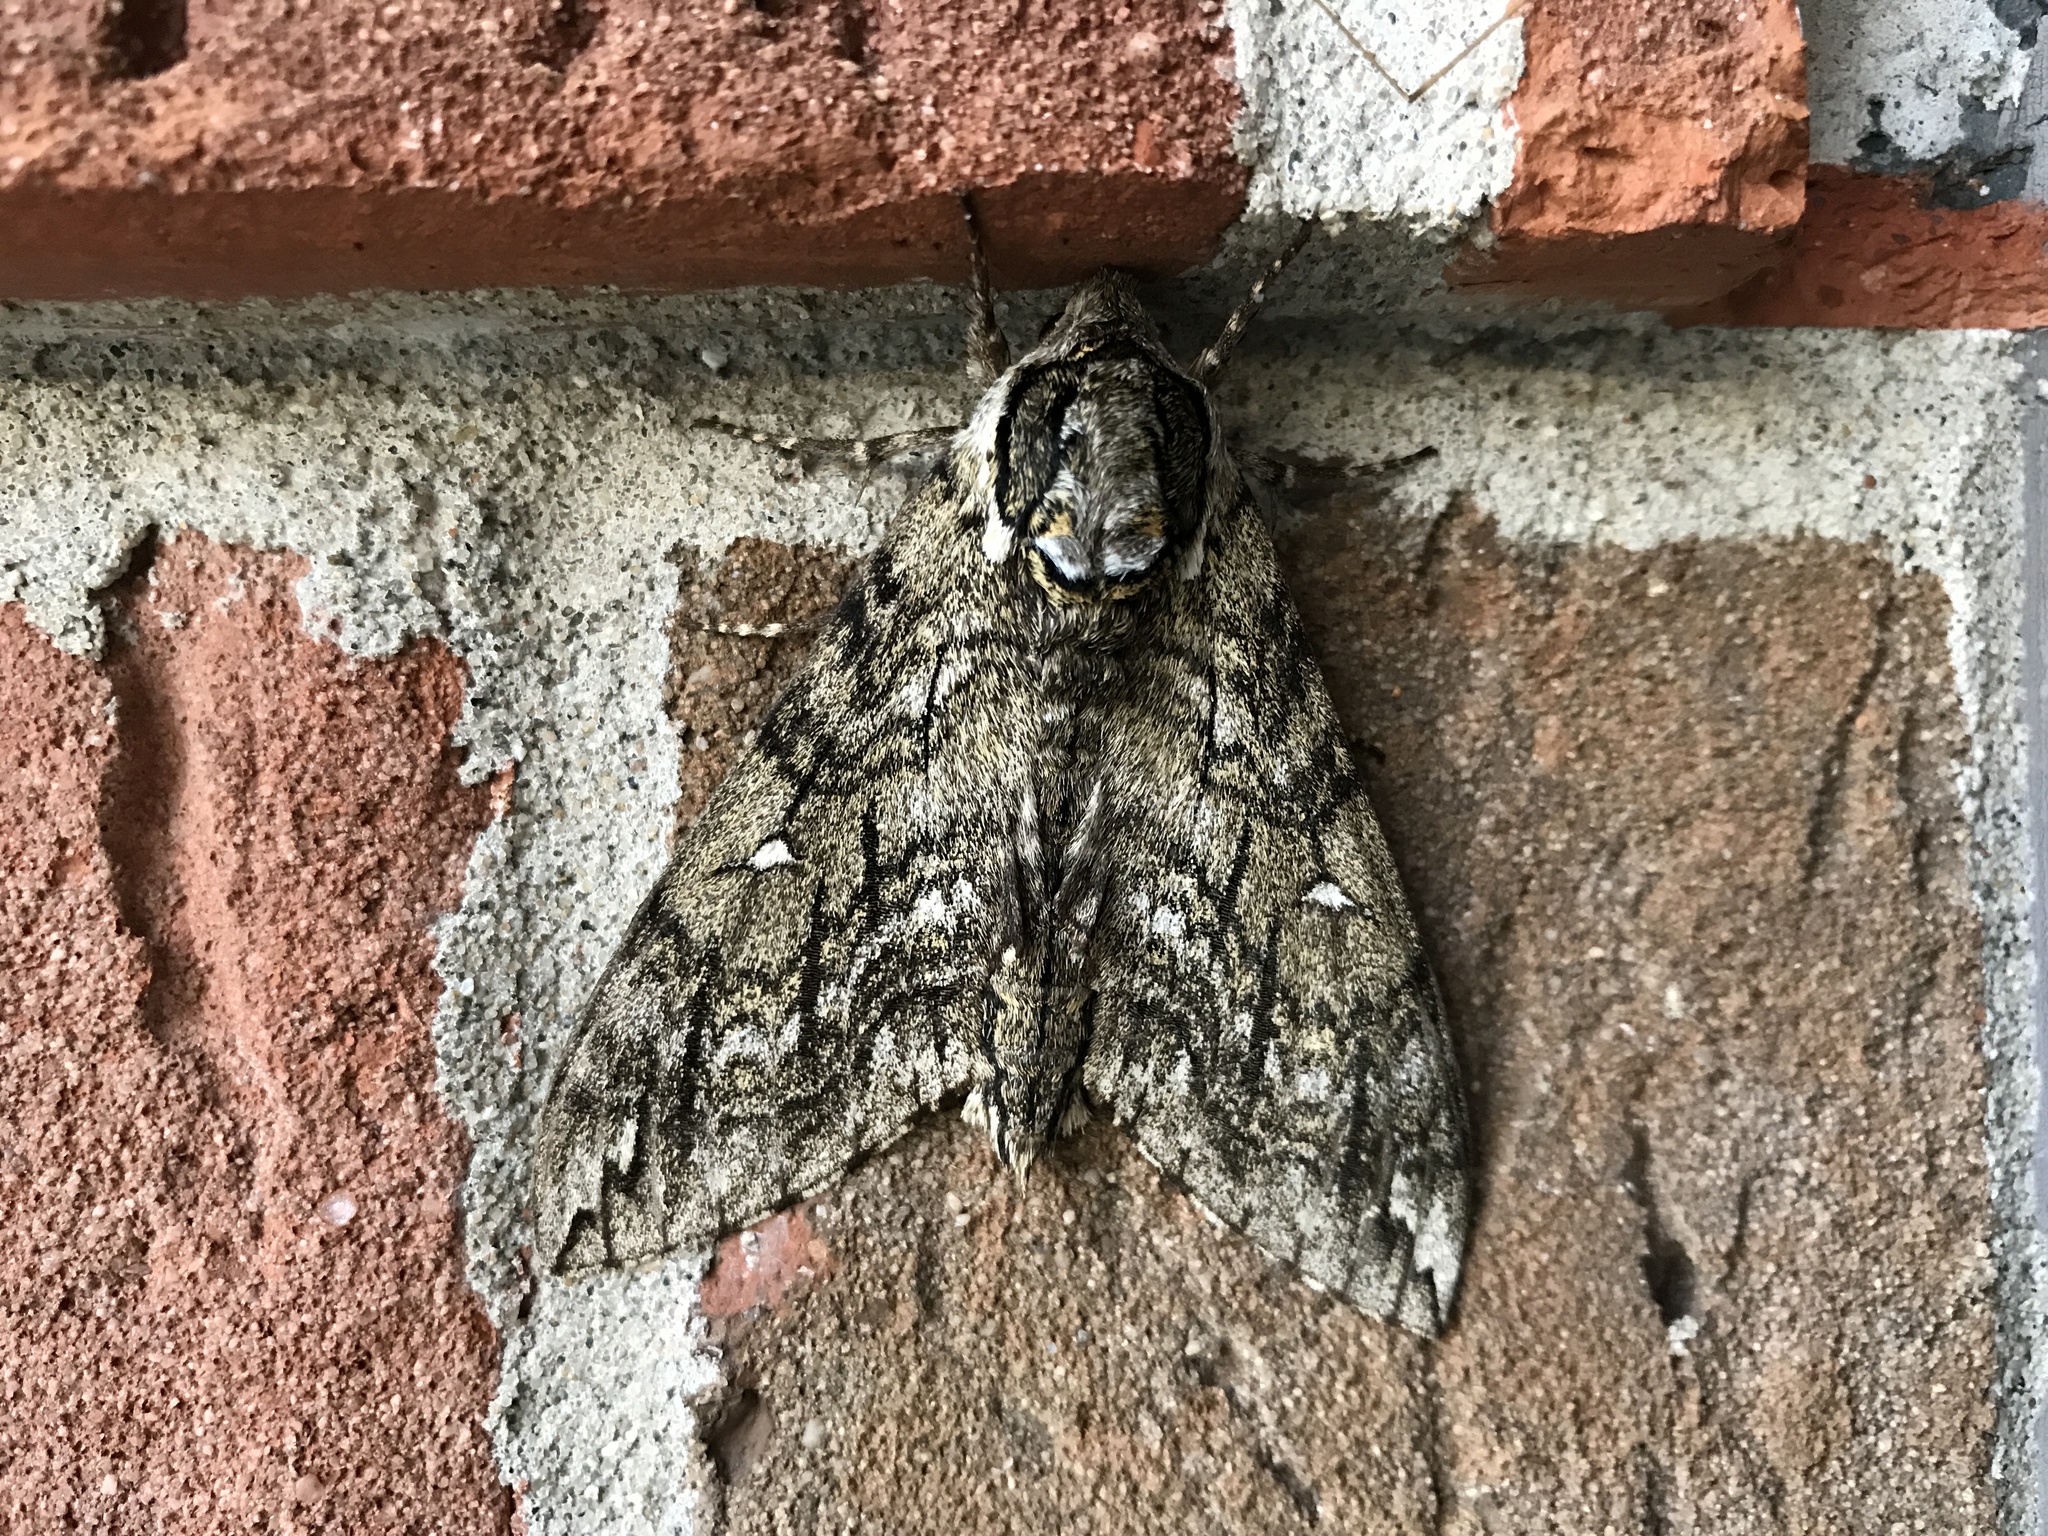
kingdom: Animalia
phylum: Arthropoda
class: Insecta
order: Lepidoptera
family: Sphingidae
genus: Ceratomia
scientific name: Ceratomia undulosa
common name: Waved sphinx
